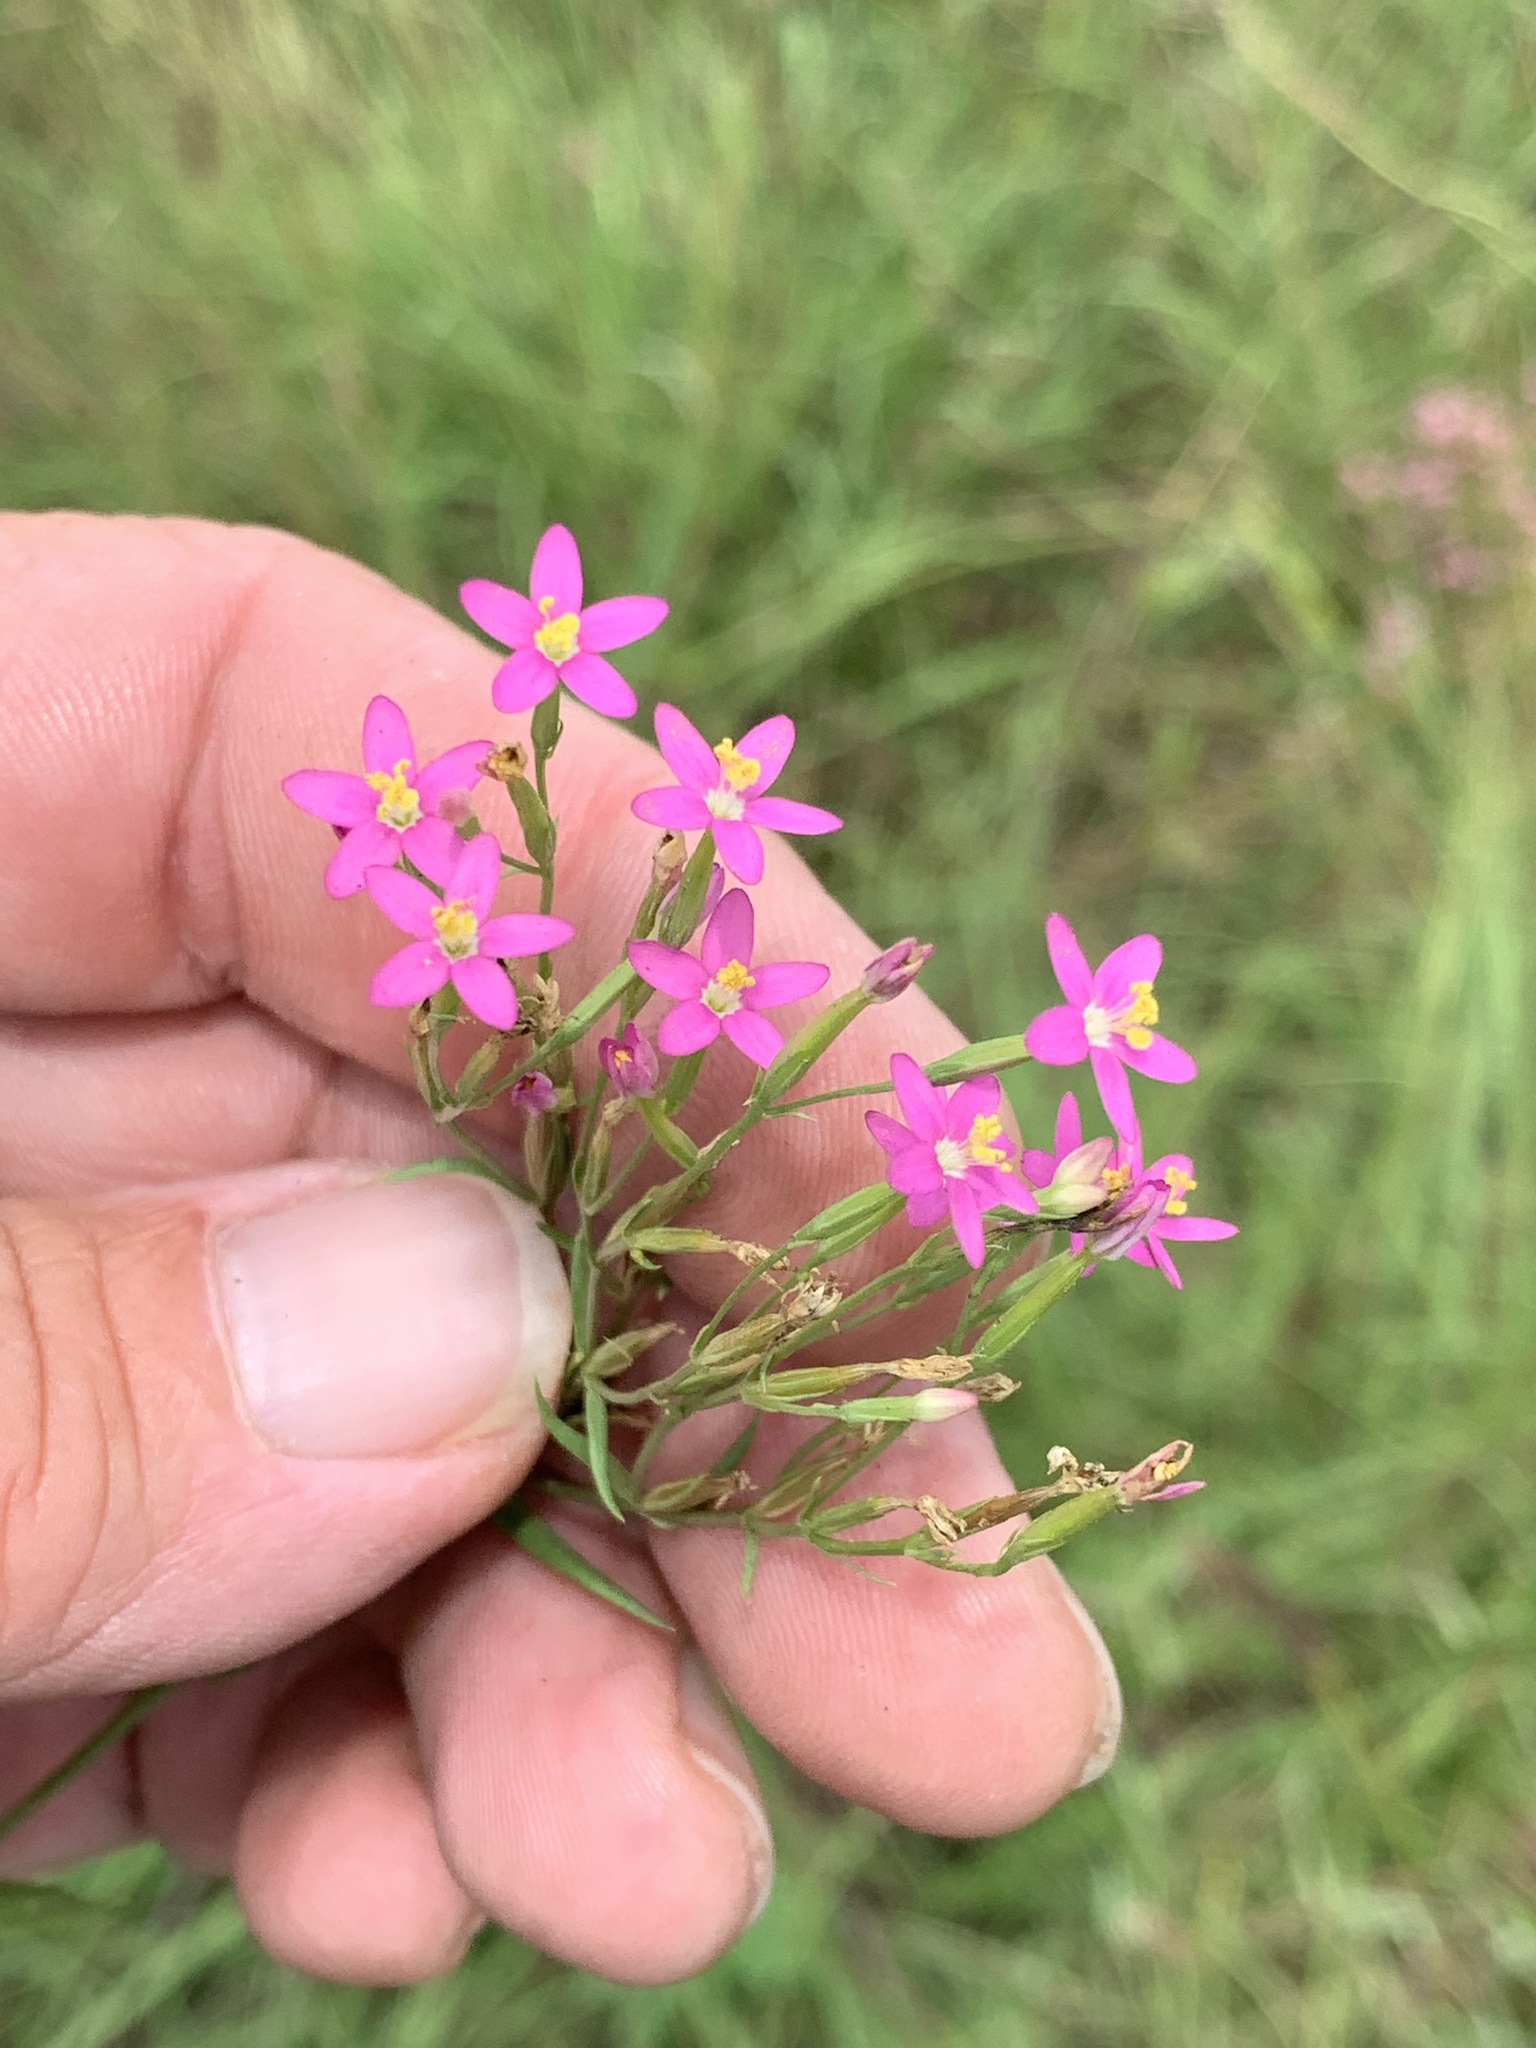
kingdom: Plantae
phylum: Tracheophyta
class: Magnoliopsida
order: Gentianales
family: Gentianaceae
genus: Centaurium
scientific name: Centaurium pulchellum
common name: Lesser centaury
